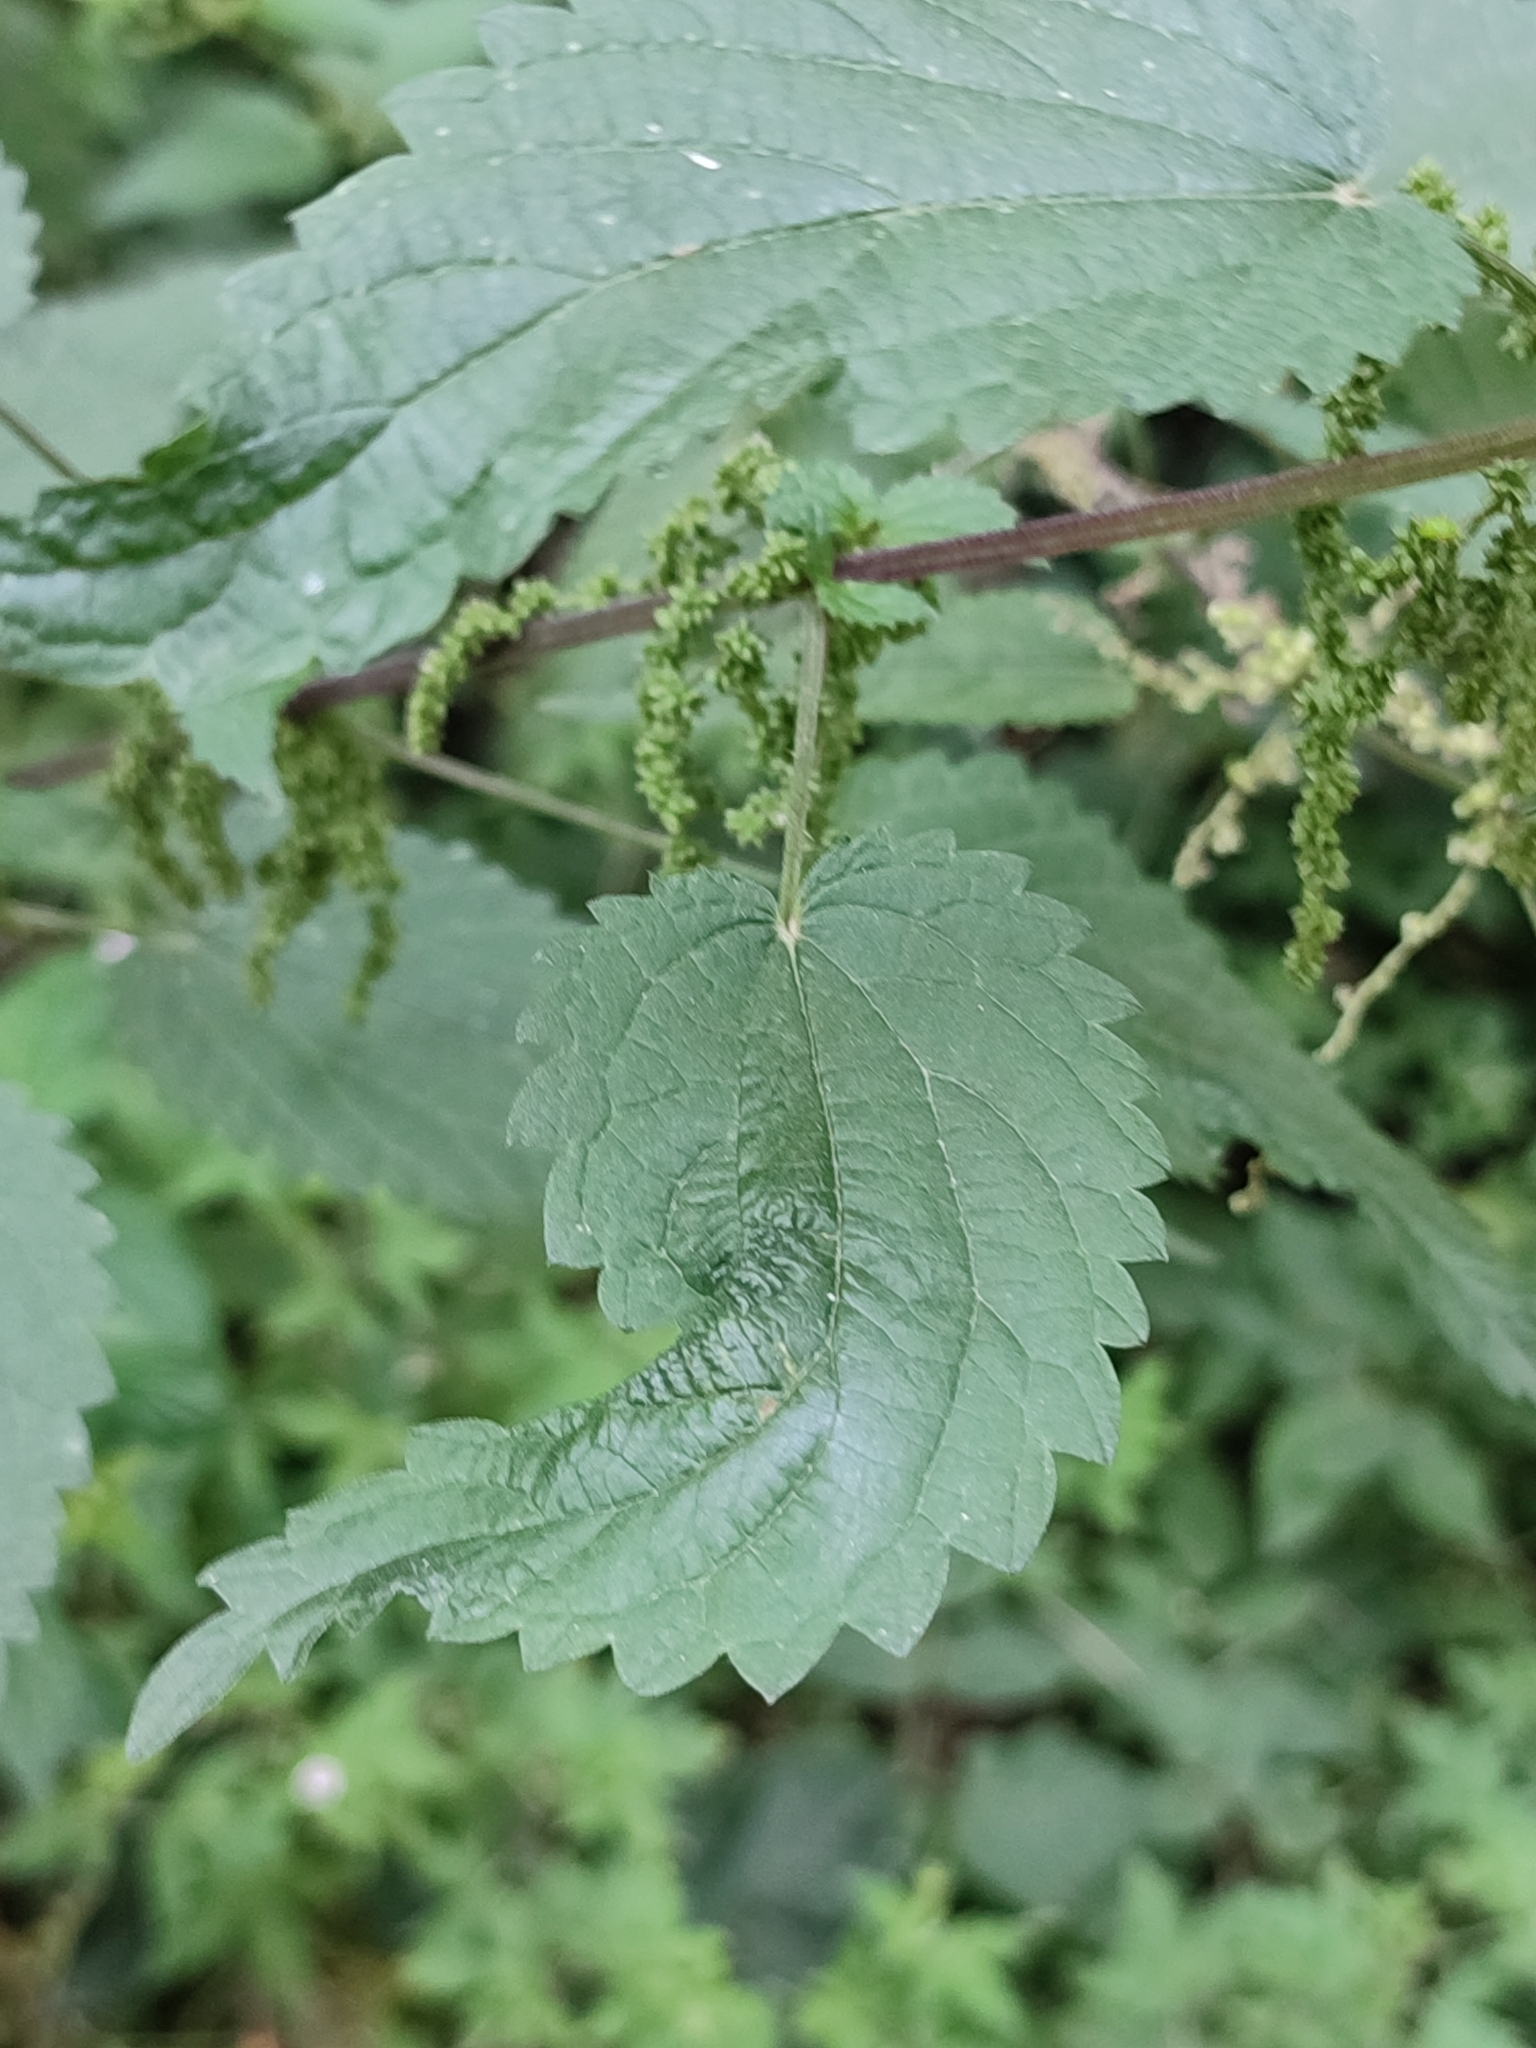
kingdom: Plantae
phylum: Tracheophyta
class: Magnoliopsida
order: Rosales
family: Urticaceae
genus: Urtica
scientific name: Urtica dioica
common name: Common nettle
